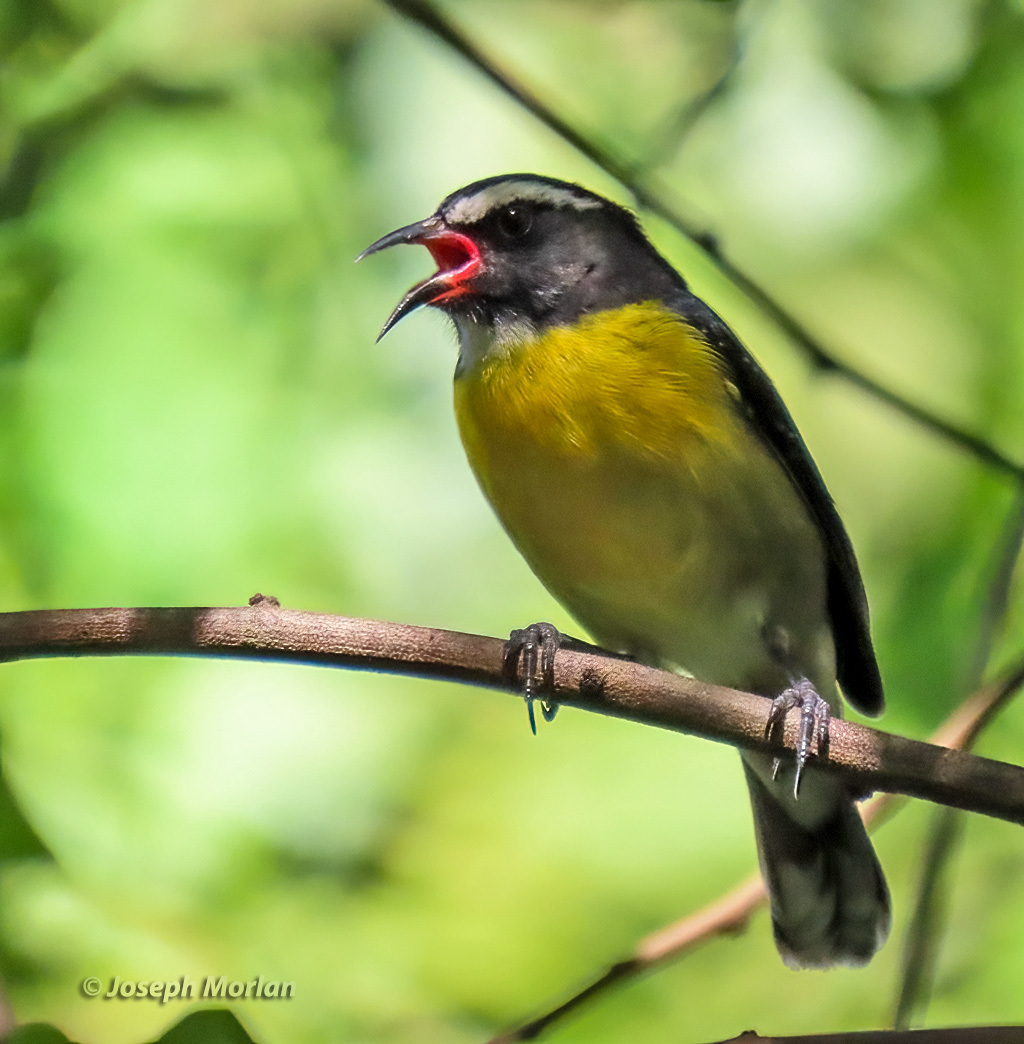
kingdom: Animalia
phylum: Chordata
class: Aves
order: Passeriformes
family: Thraupidae
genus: Coereba
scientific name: Coereba flaveola
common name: Bananaquit
